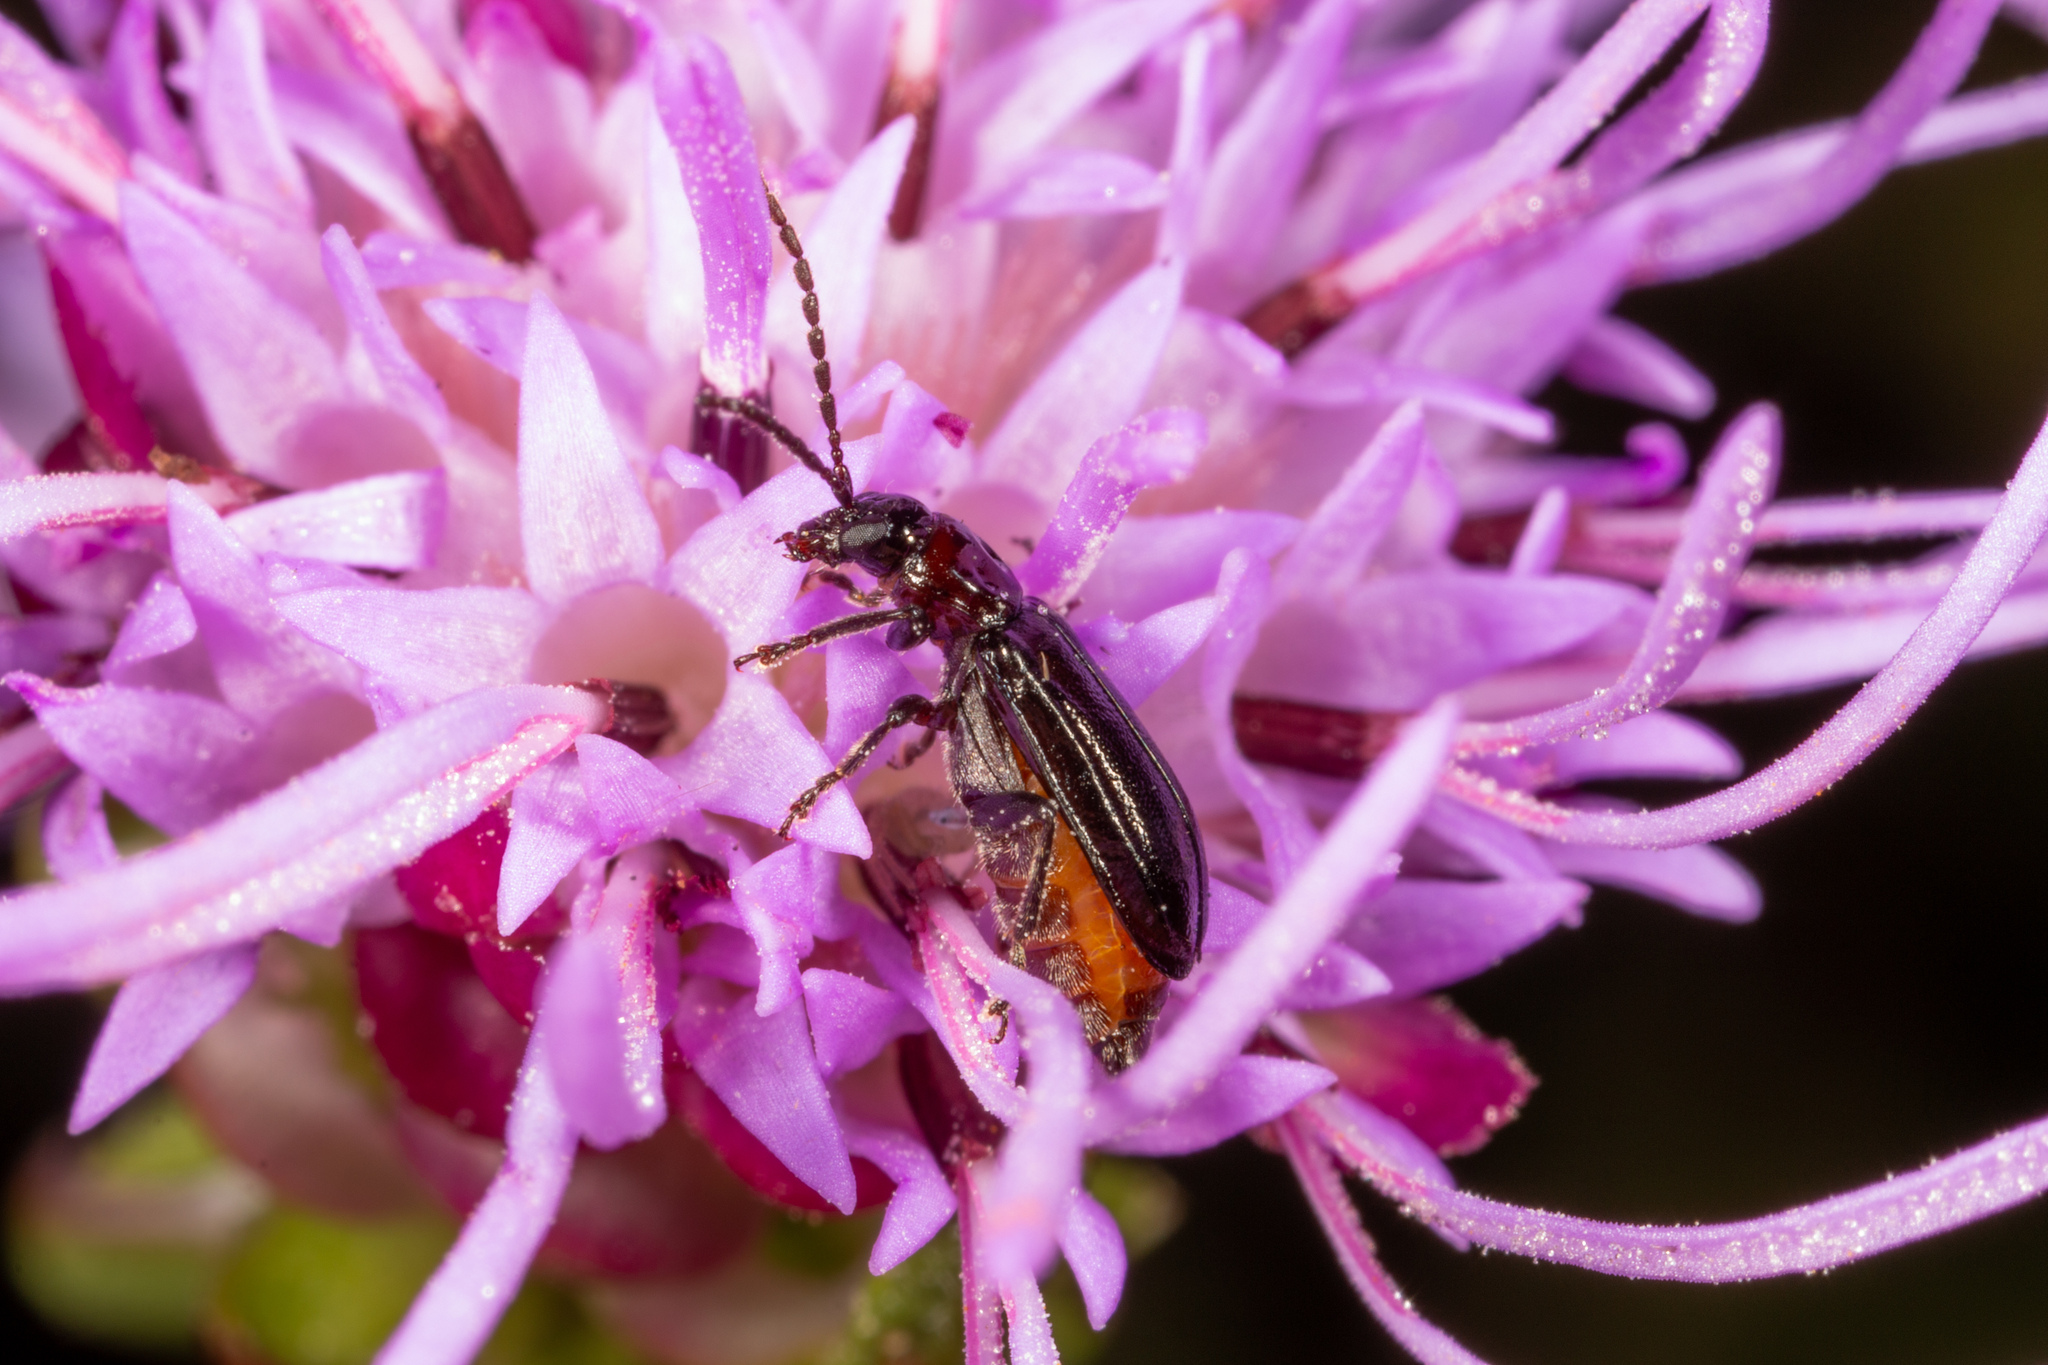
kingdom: Animalia
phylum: Arthropoda
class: Insecta
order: Coleoptera
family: Chrysomelidae
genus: Diabrotica
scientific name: Diabrotica cristata
